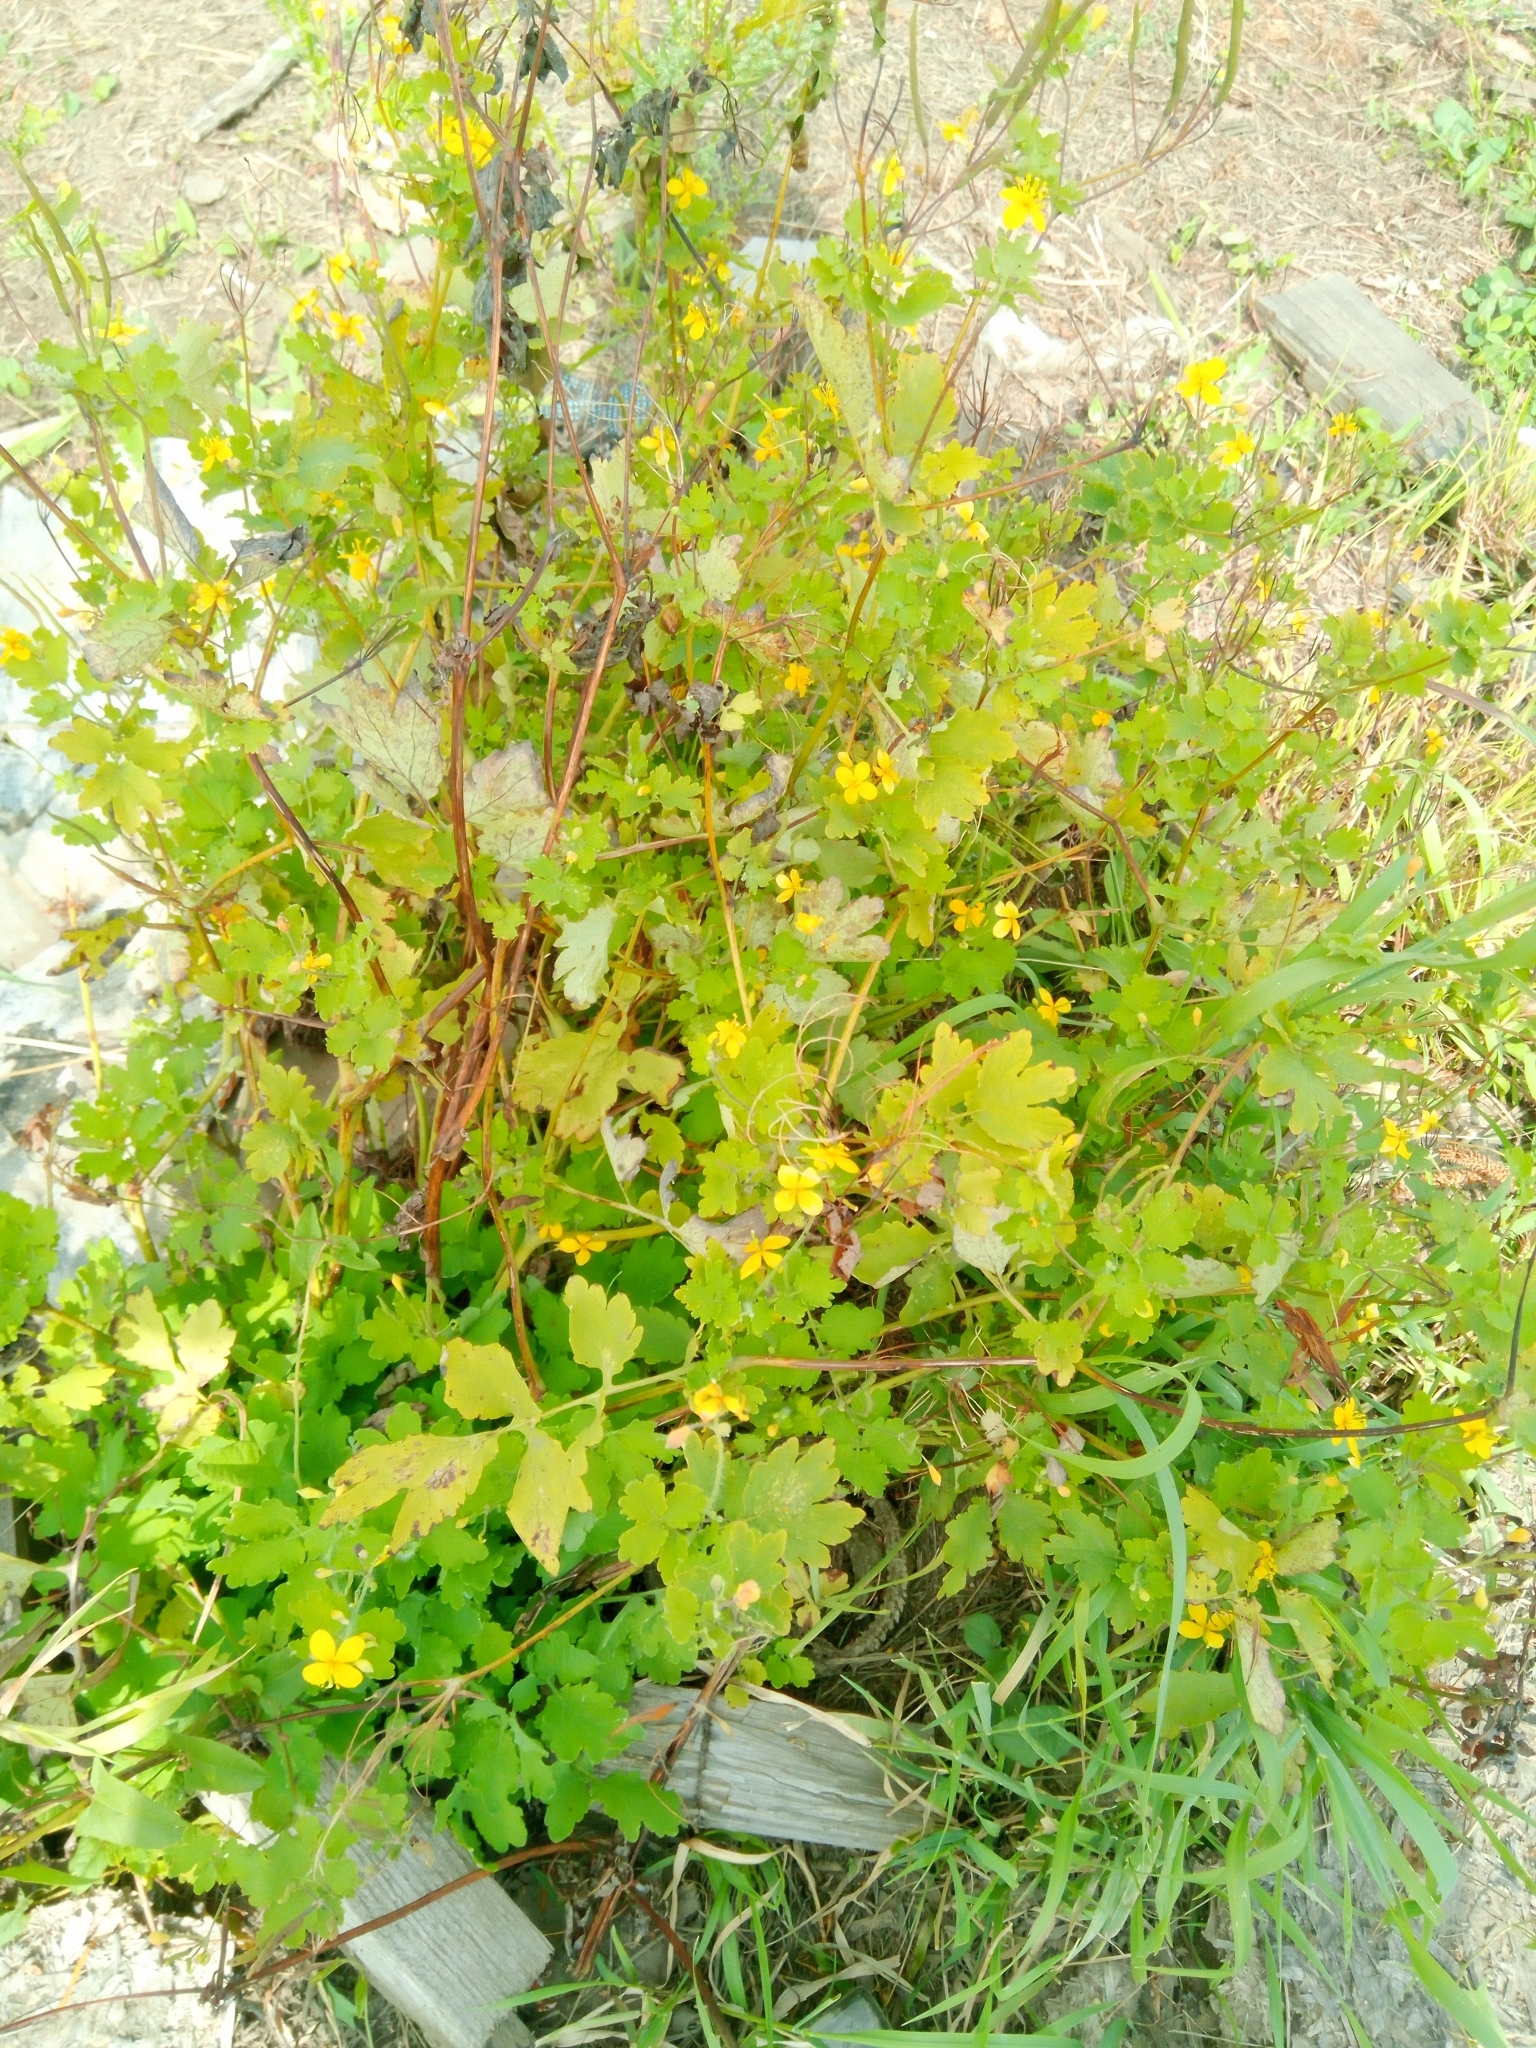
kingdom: Plantae
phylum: Tracheophyta
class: Magnoliopsida
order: Ranunculales
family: Papaveraceae
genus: Chelidonium
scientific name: Chelidonium majus
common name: Greater celandine
